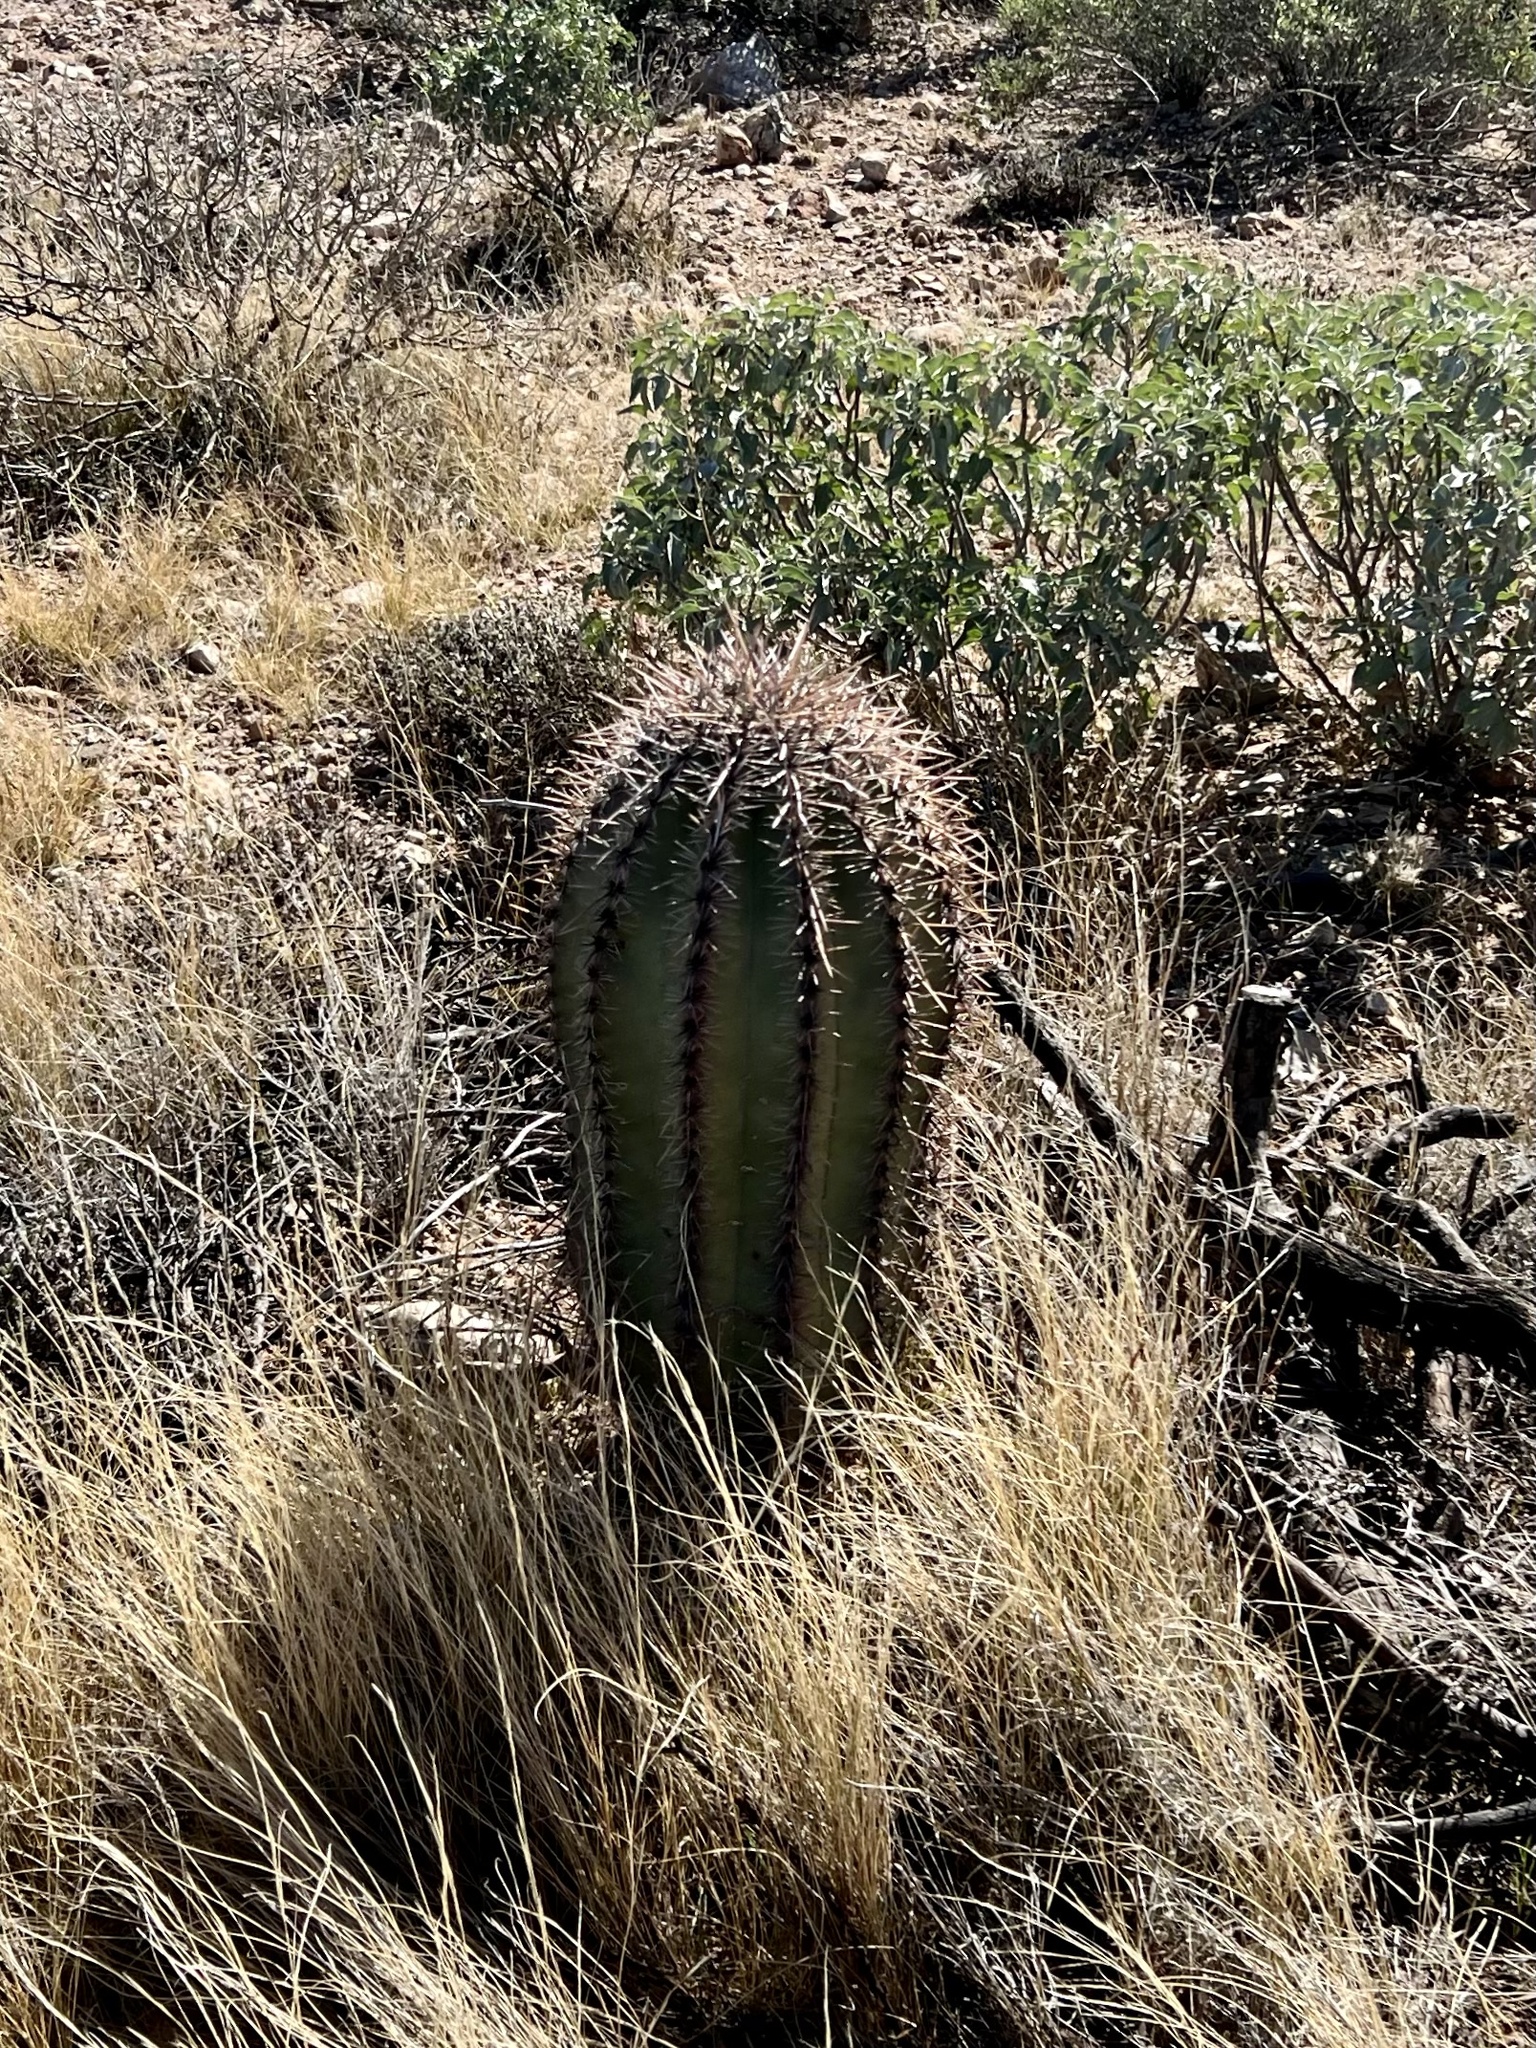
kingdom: Plantae
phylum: Tracheophyta
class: Magnoliopsida
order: Caryophyllales
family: Cactaceae
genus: Carnegiea
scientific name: Carnegiea gigantea
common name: Saguaro
